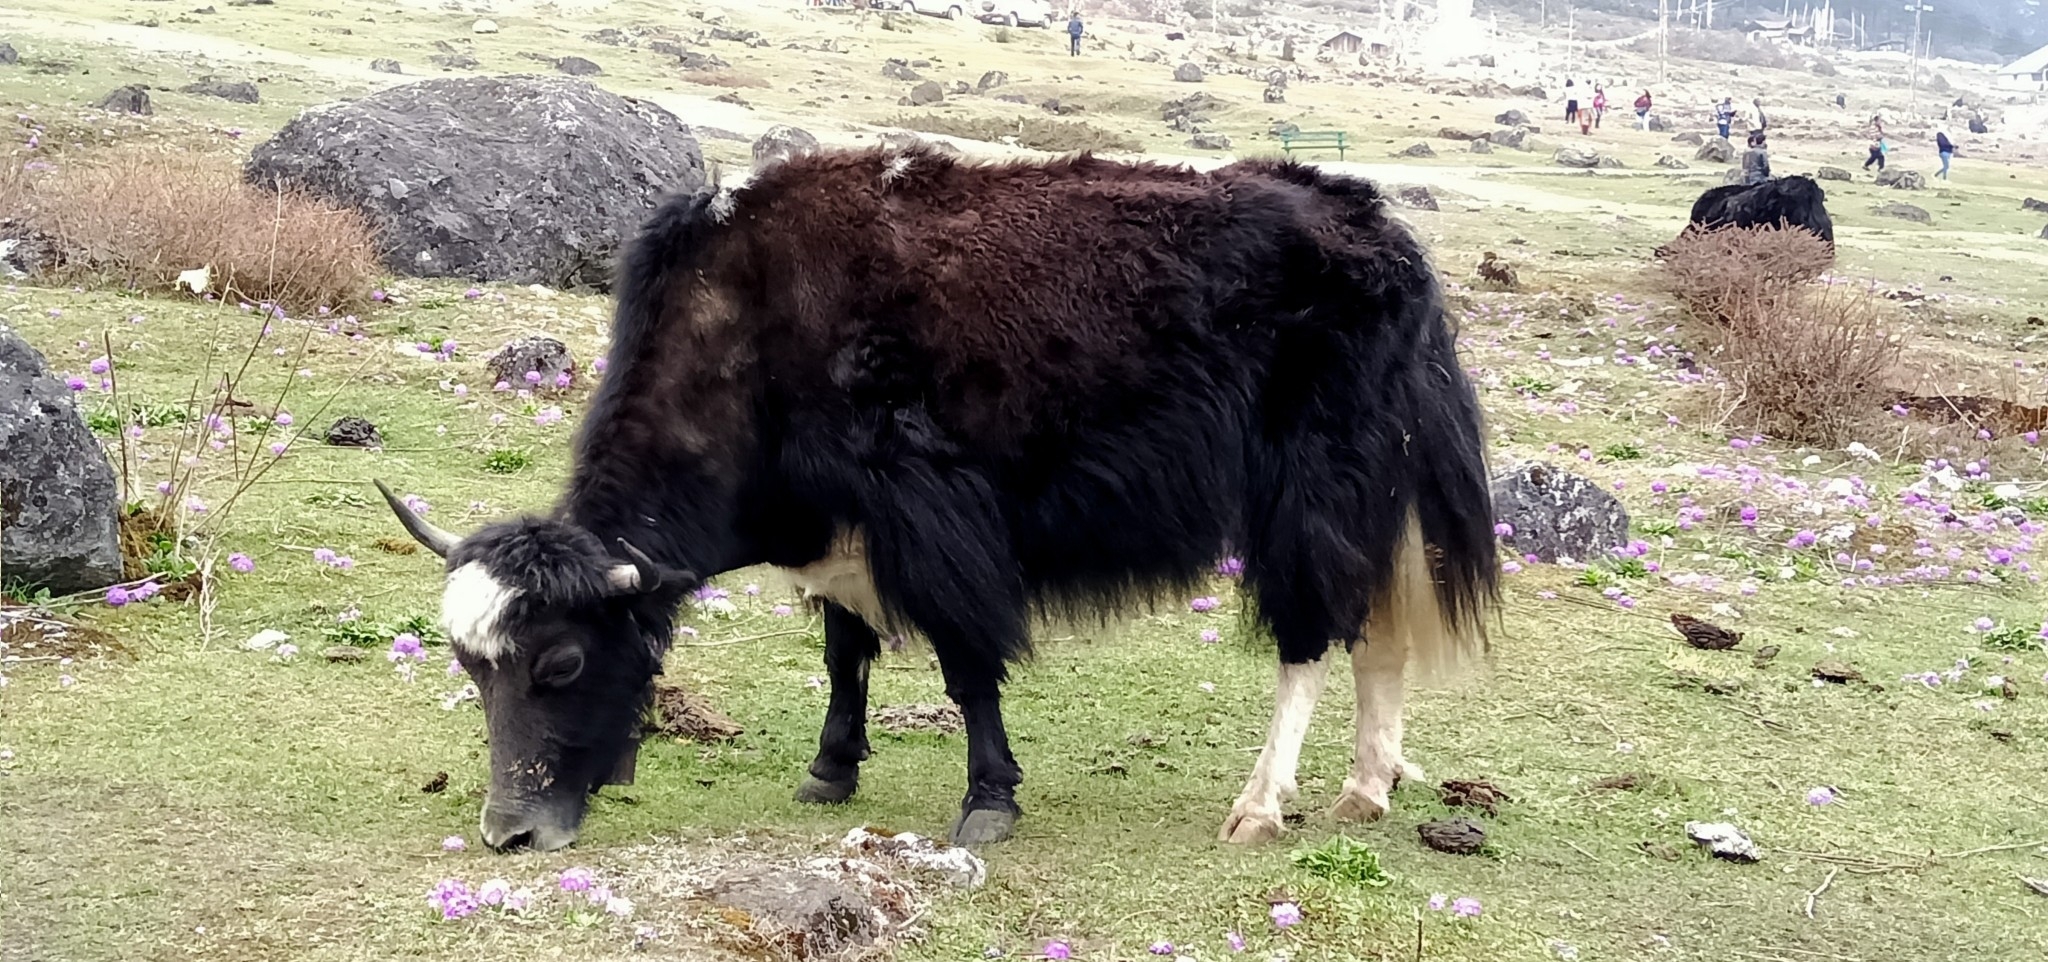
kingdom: Animalia
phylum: Chordata
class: Mammalia
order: Artiodactyla
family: Bovidae
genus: Bos
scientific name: Bos grunniens
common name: Yak
